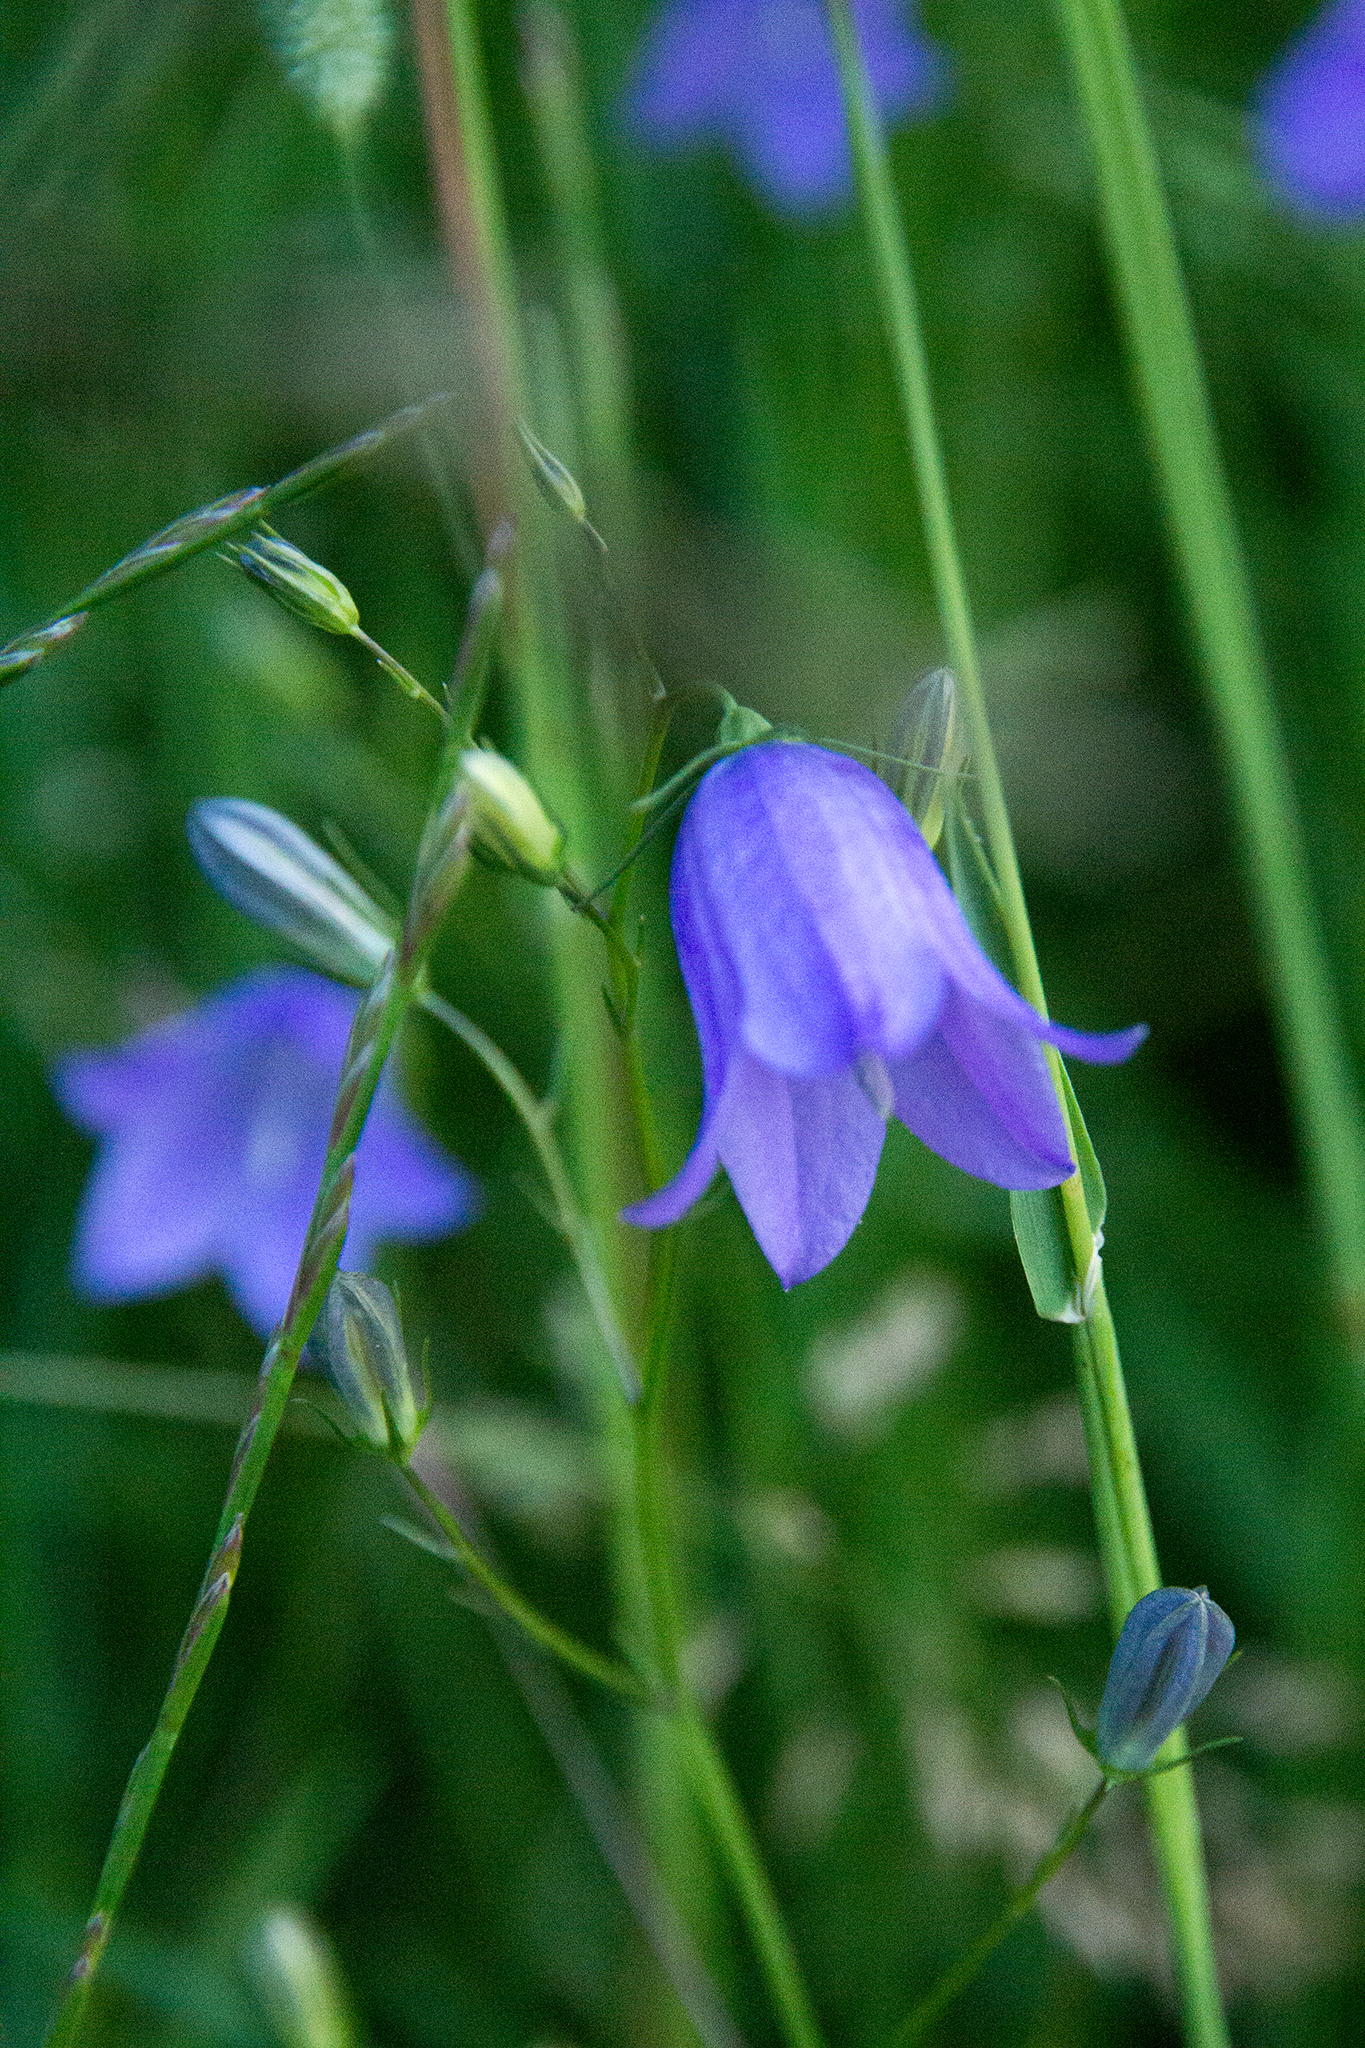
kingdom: Plantae
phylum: Tracheophyta
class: Magnoliopsida
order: Asterales
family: Campanulaceae
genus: Campanula
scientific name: Campanula rotundifolia
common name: Harebell
